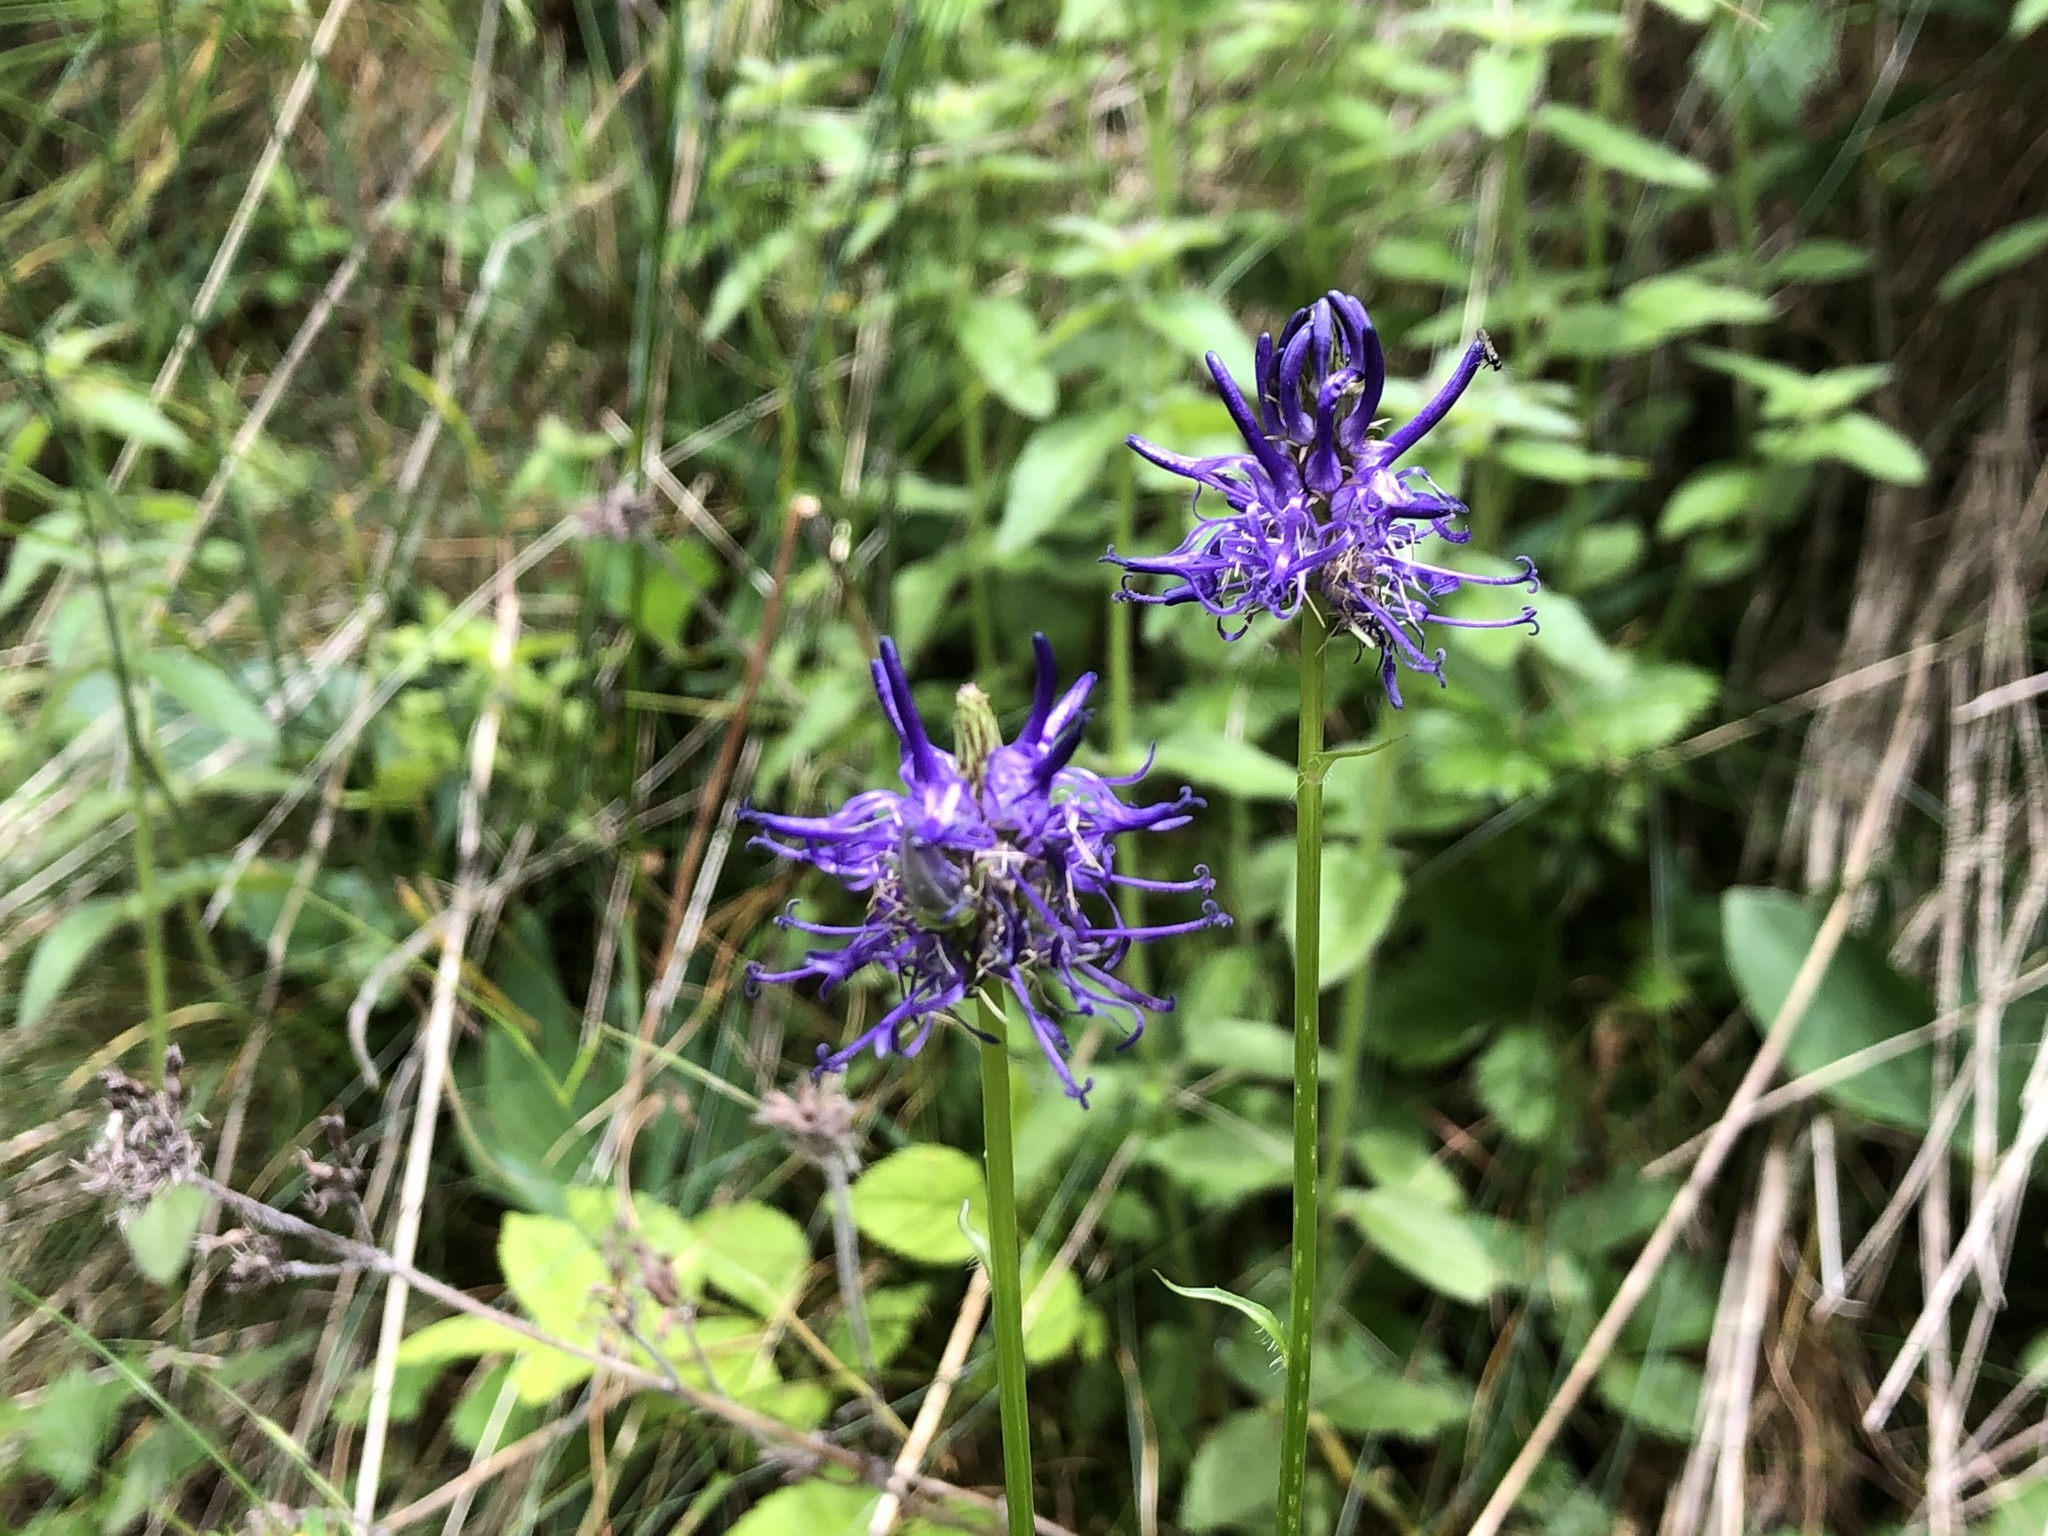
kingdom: Plantae
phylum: Tracheophyta
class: Magnoliopsida
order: Asterales
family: Campanulaceae
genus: Phyteuma
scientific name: Phyteuma betonicifolium
